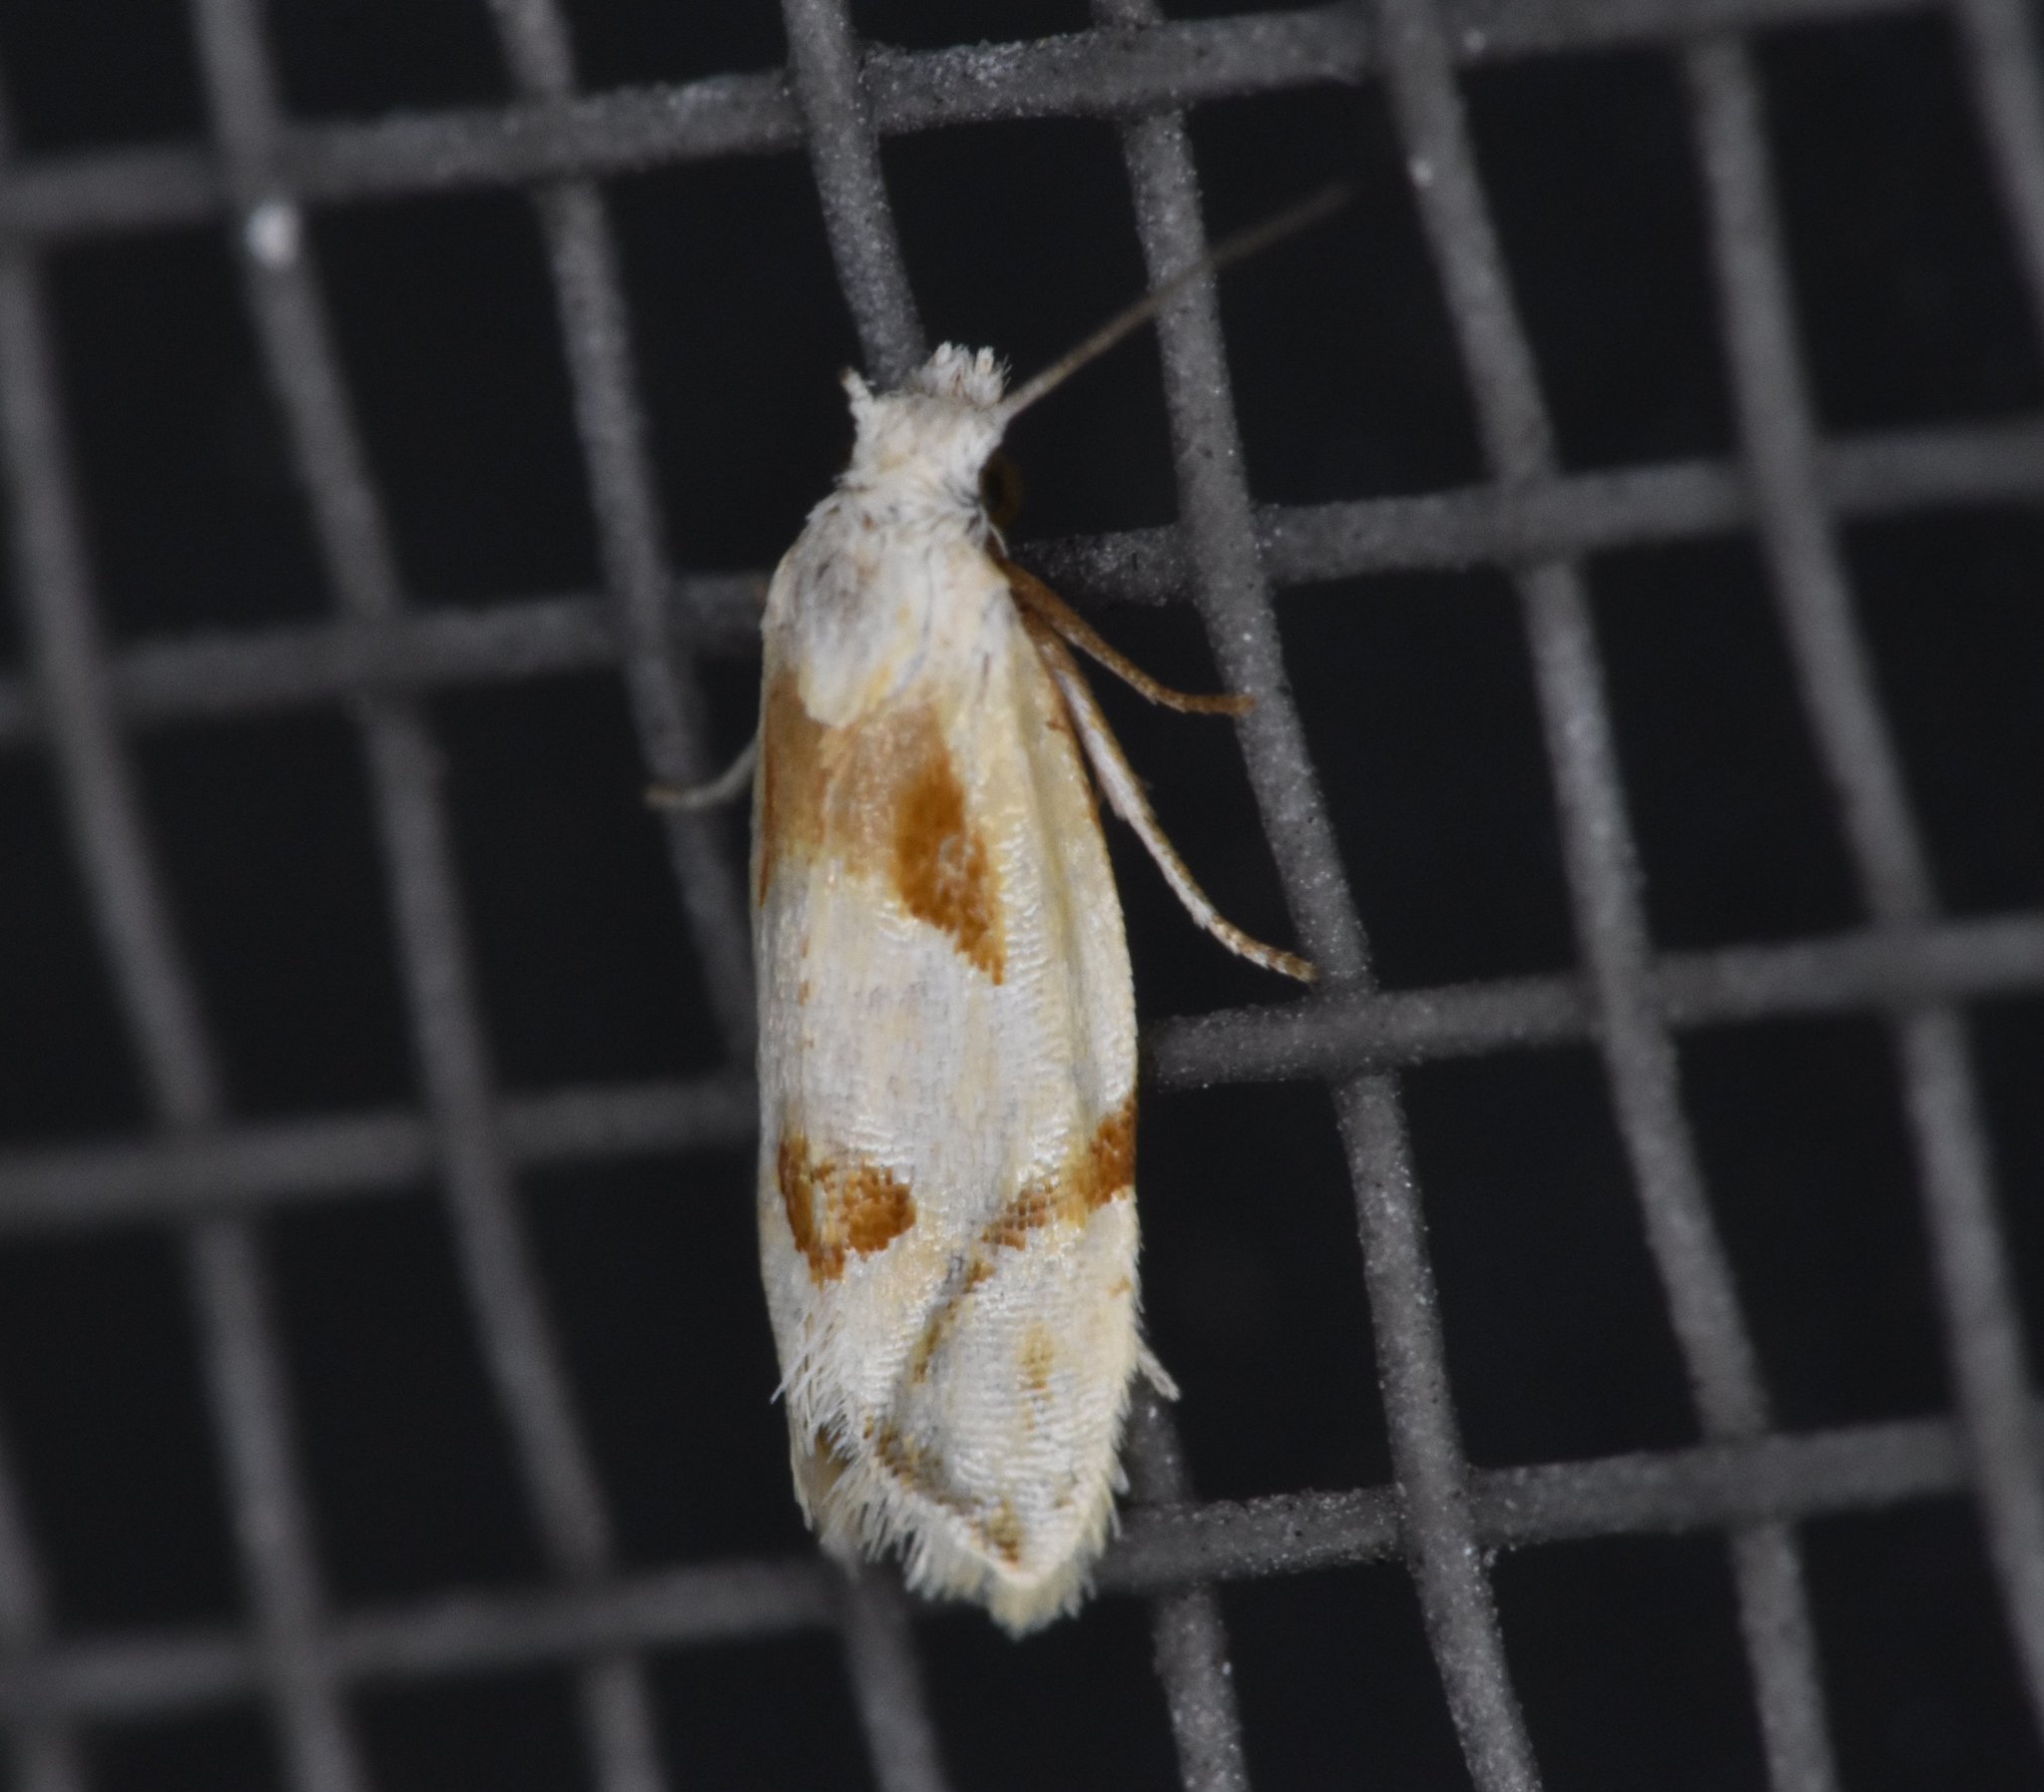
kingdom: Animalia
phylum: Arthropoda
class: Insecta
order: Lepidoptera
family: Tortricidae
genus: Aethes
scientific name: Aethes seriatana
